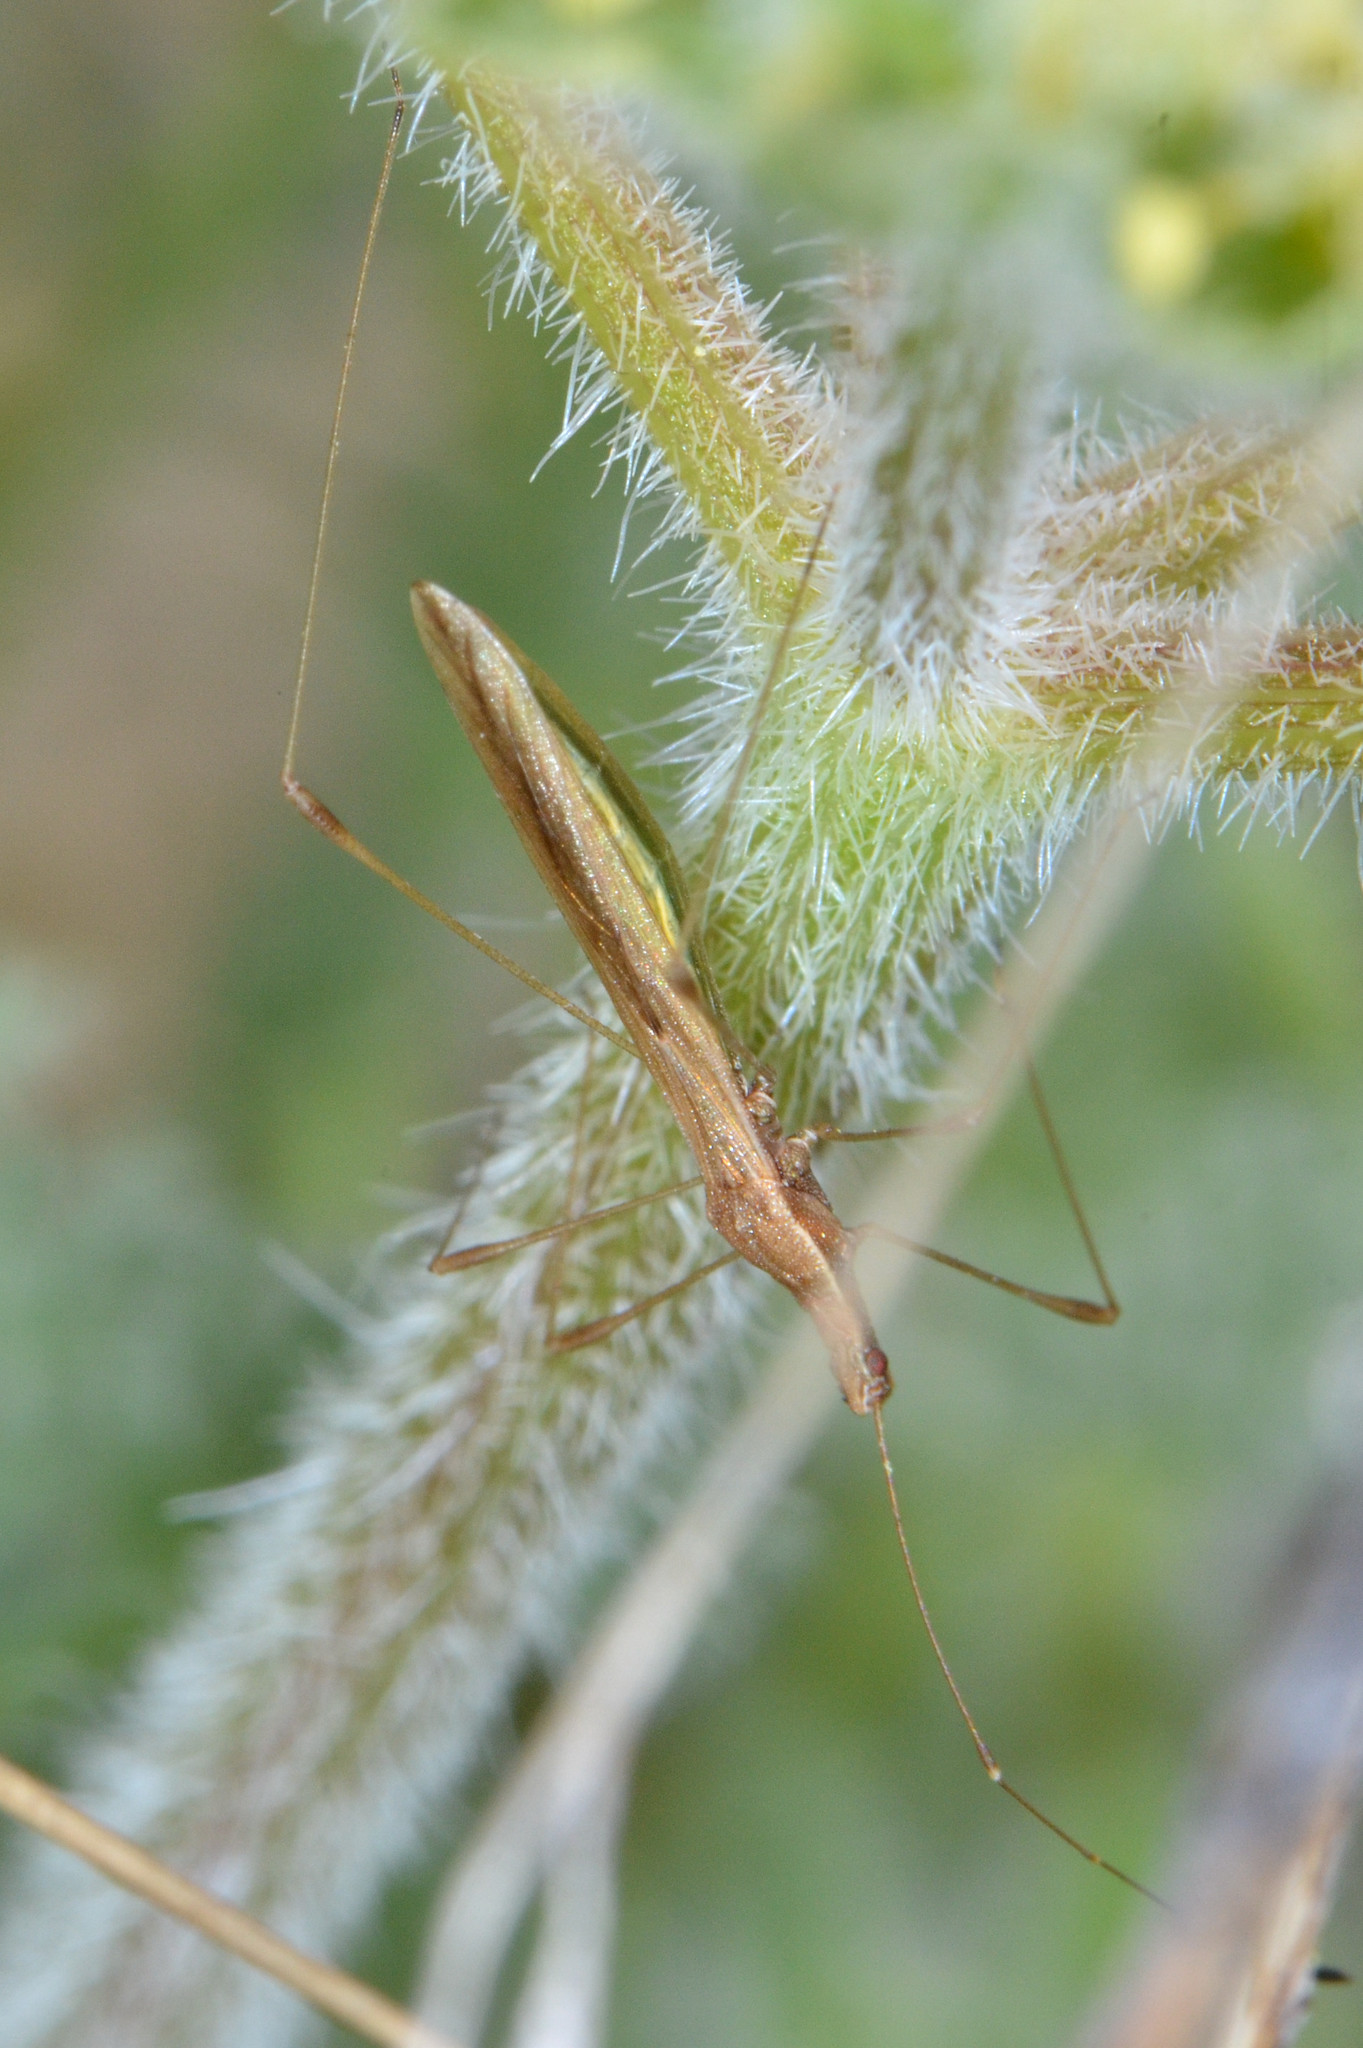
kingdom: Animalia
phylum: Arthropoda
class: Insecta
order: Hemiptera
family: Berytidae
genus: Neoneides
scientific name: Neoneides muticus
